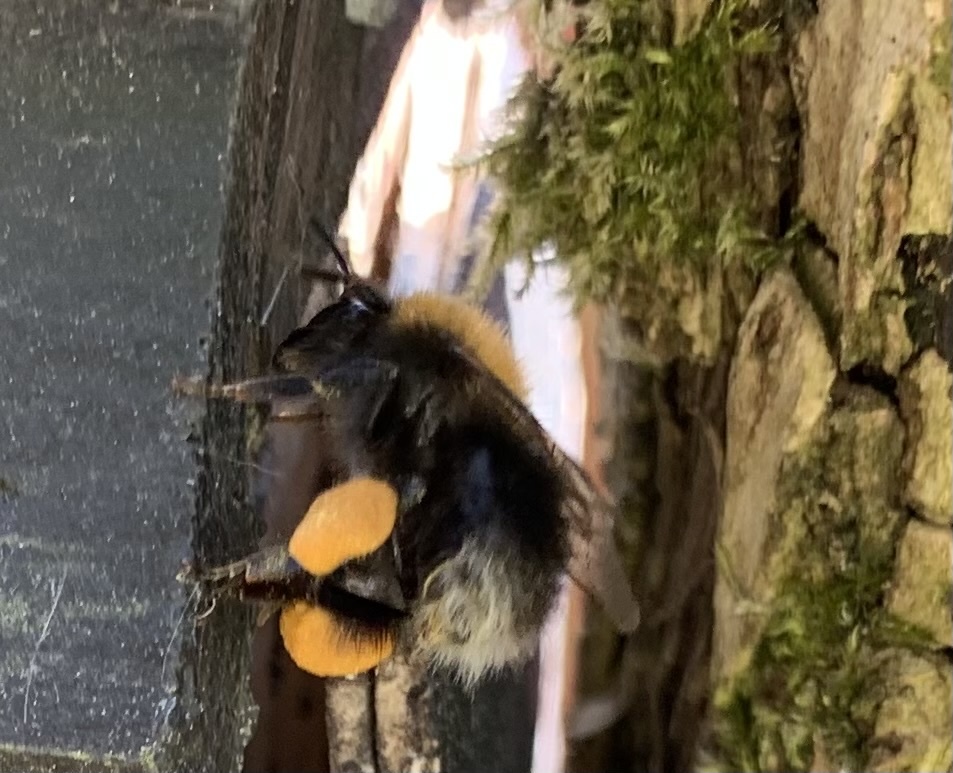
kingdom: Animalia
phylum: Arthropoda
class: Insecta
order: Hymenoptera
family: Apidae
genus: Bombus
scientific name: Bombus hypnorum
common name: New garden bumblebee
